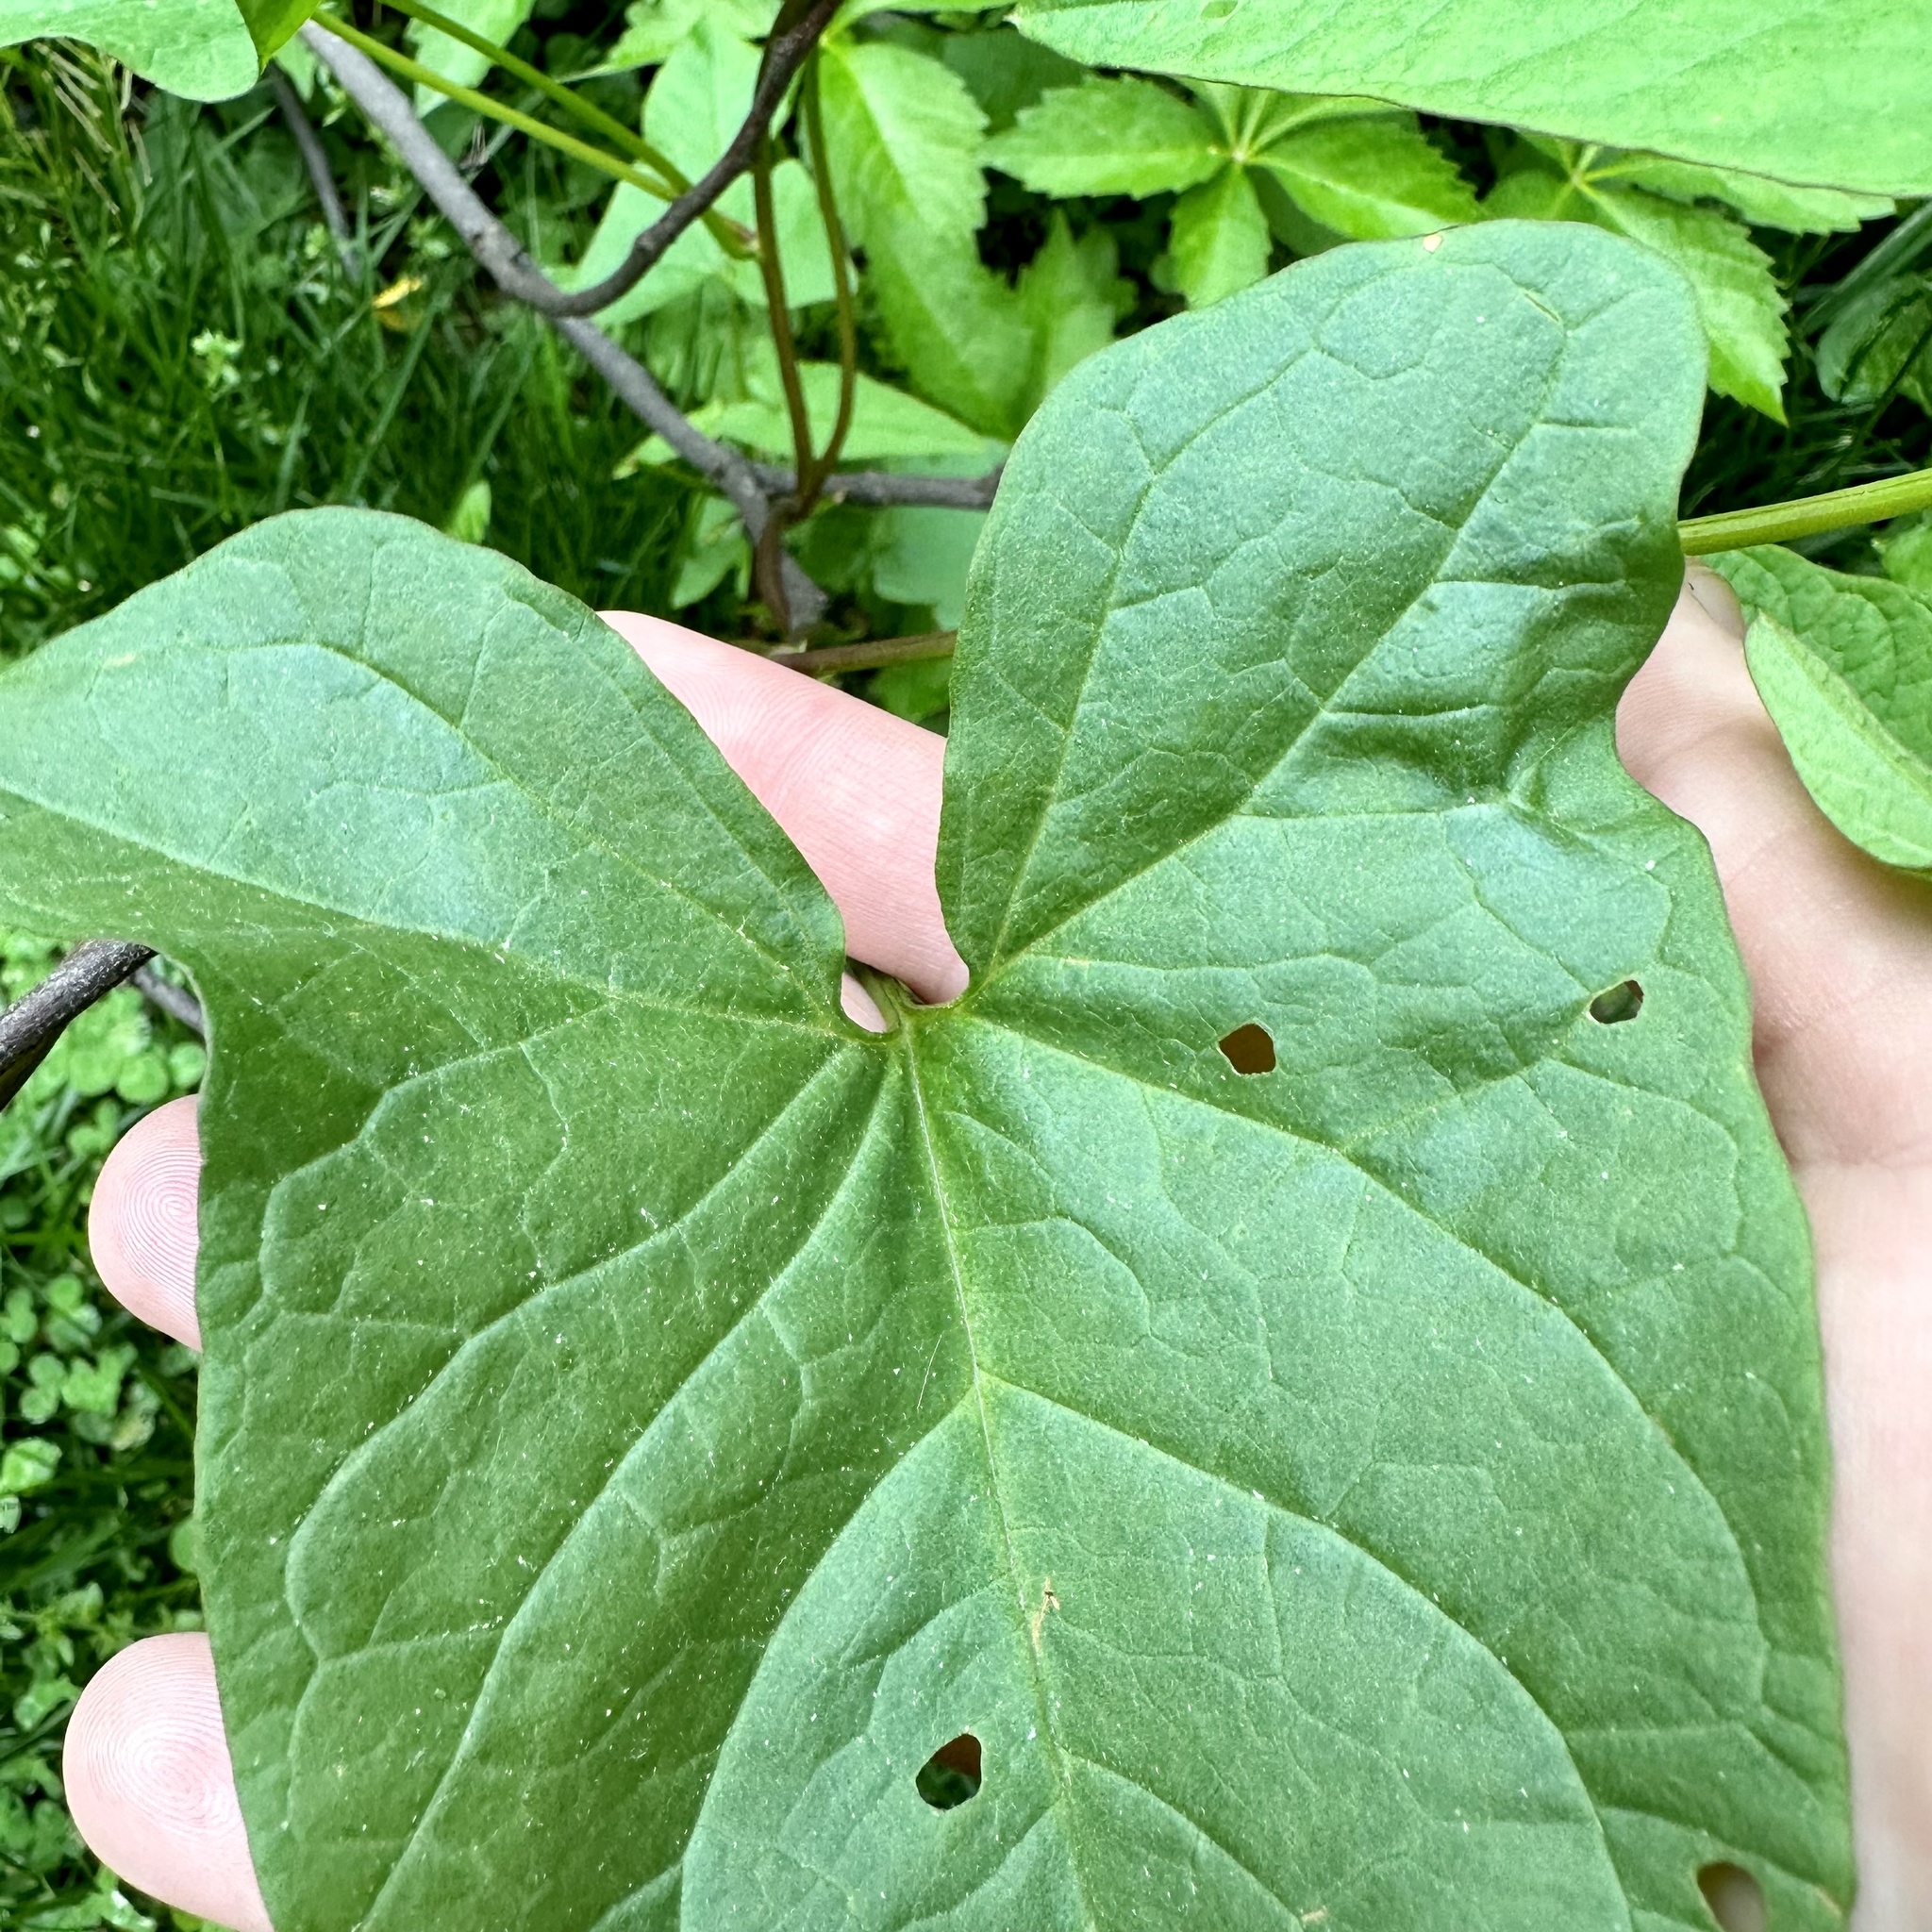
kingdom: Plantae
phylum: Tracheophyta
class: Magnoliopsida
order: Solanales
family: Convolvulaceae
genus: Calystegia
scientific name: Calystegia silvatica
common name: Large bindweed
